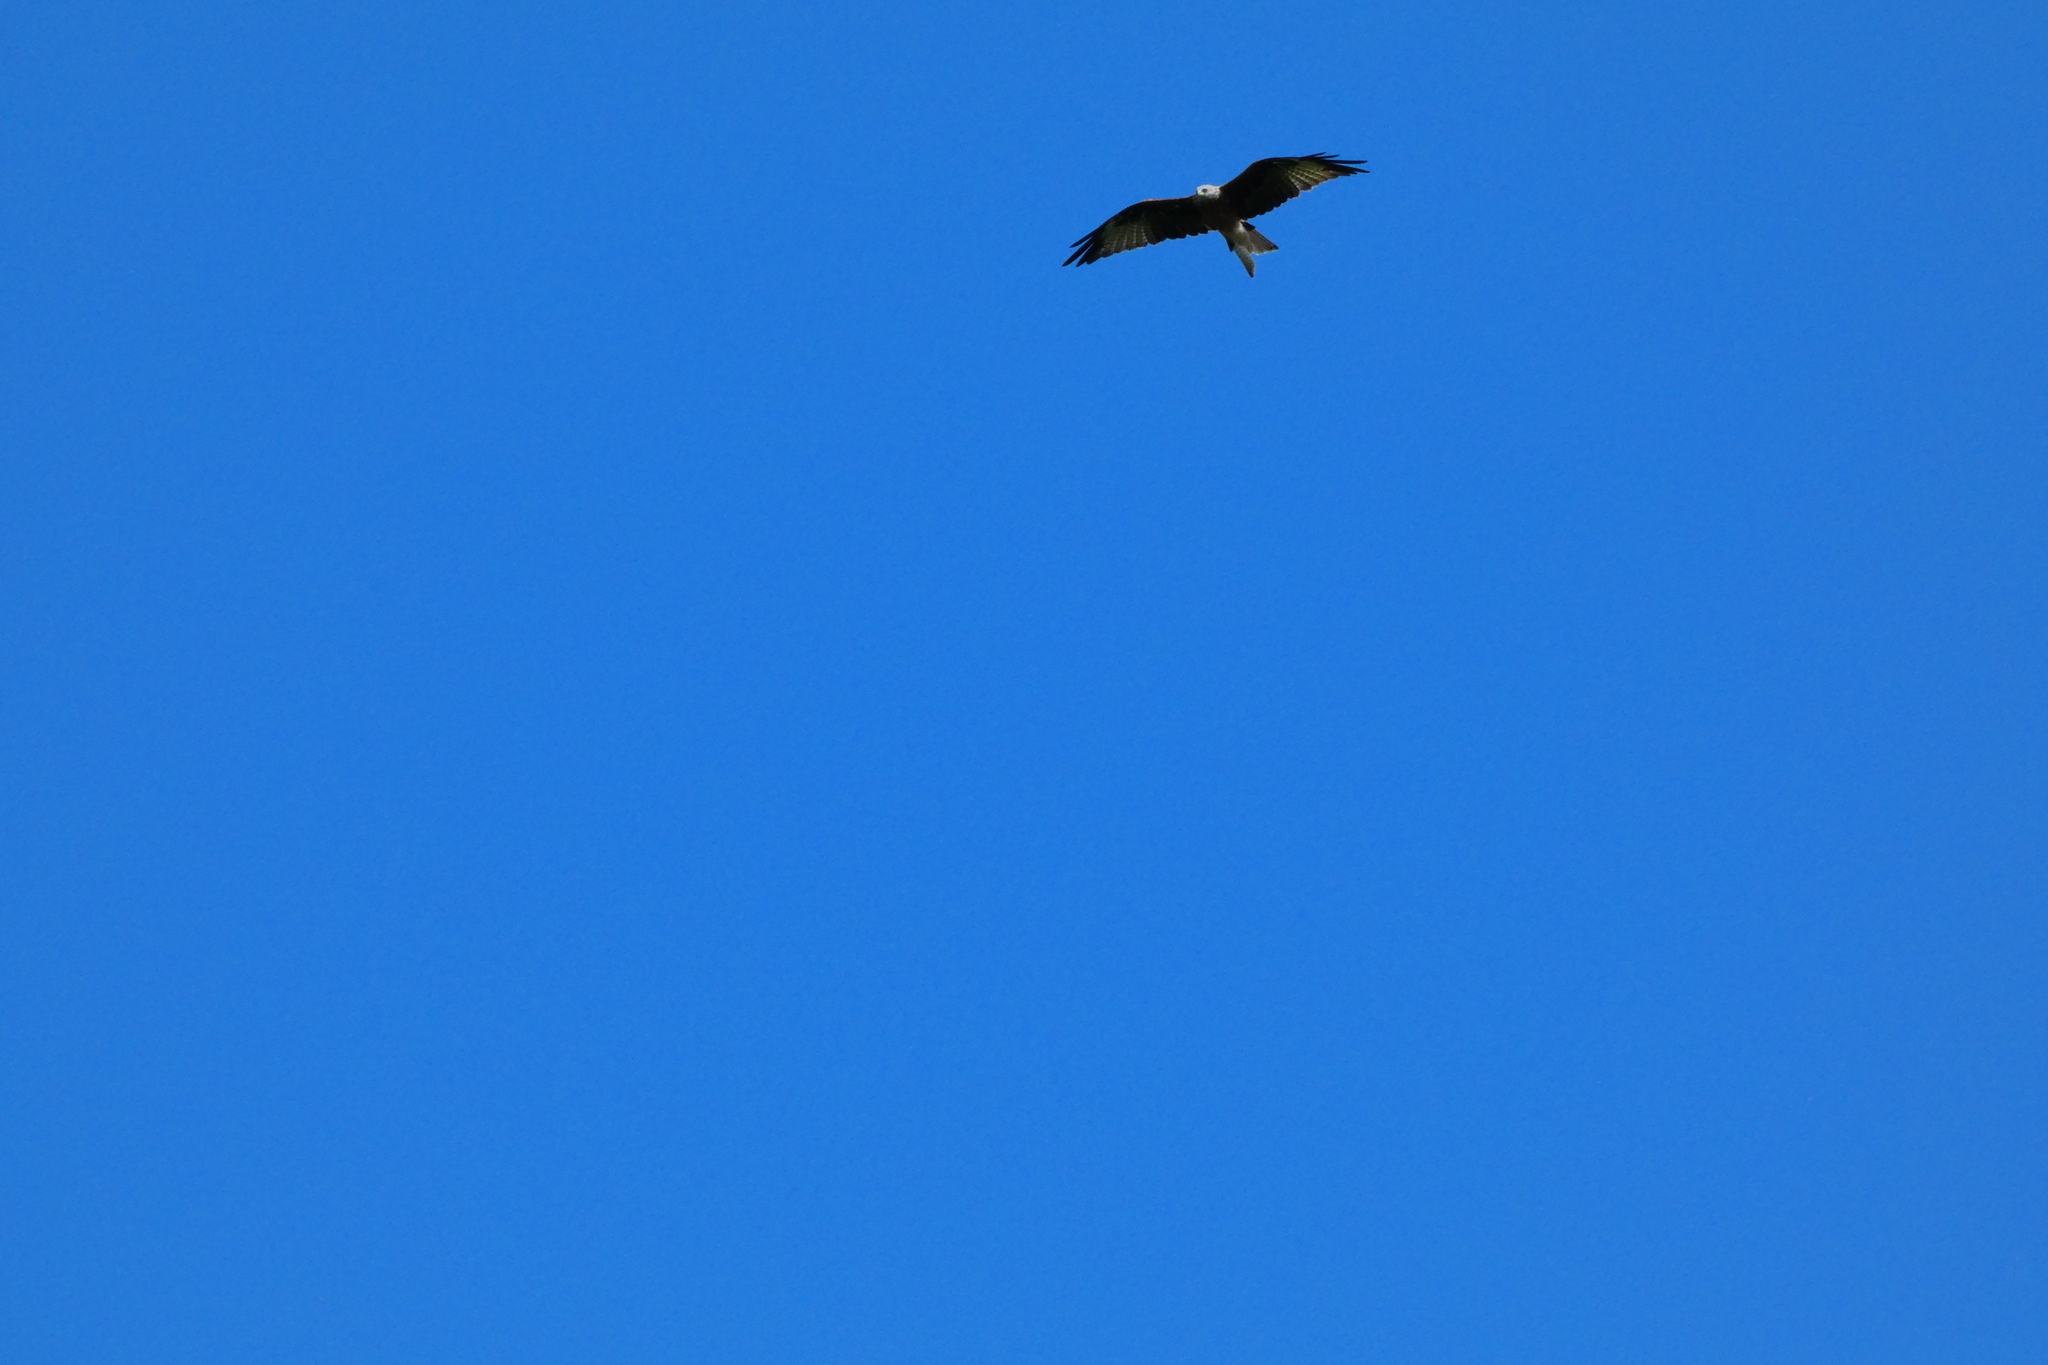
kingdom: Animalia
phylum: Chordata
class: Aves
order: Accipitriformes
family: Accipitridae
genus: Milvus
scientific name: Milvus milvus
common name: Red kite
